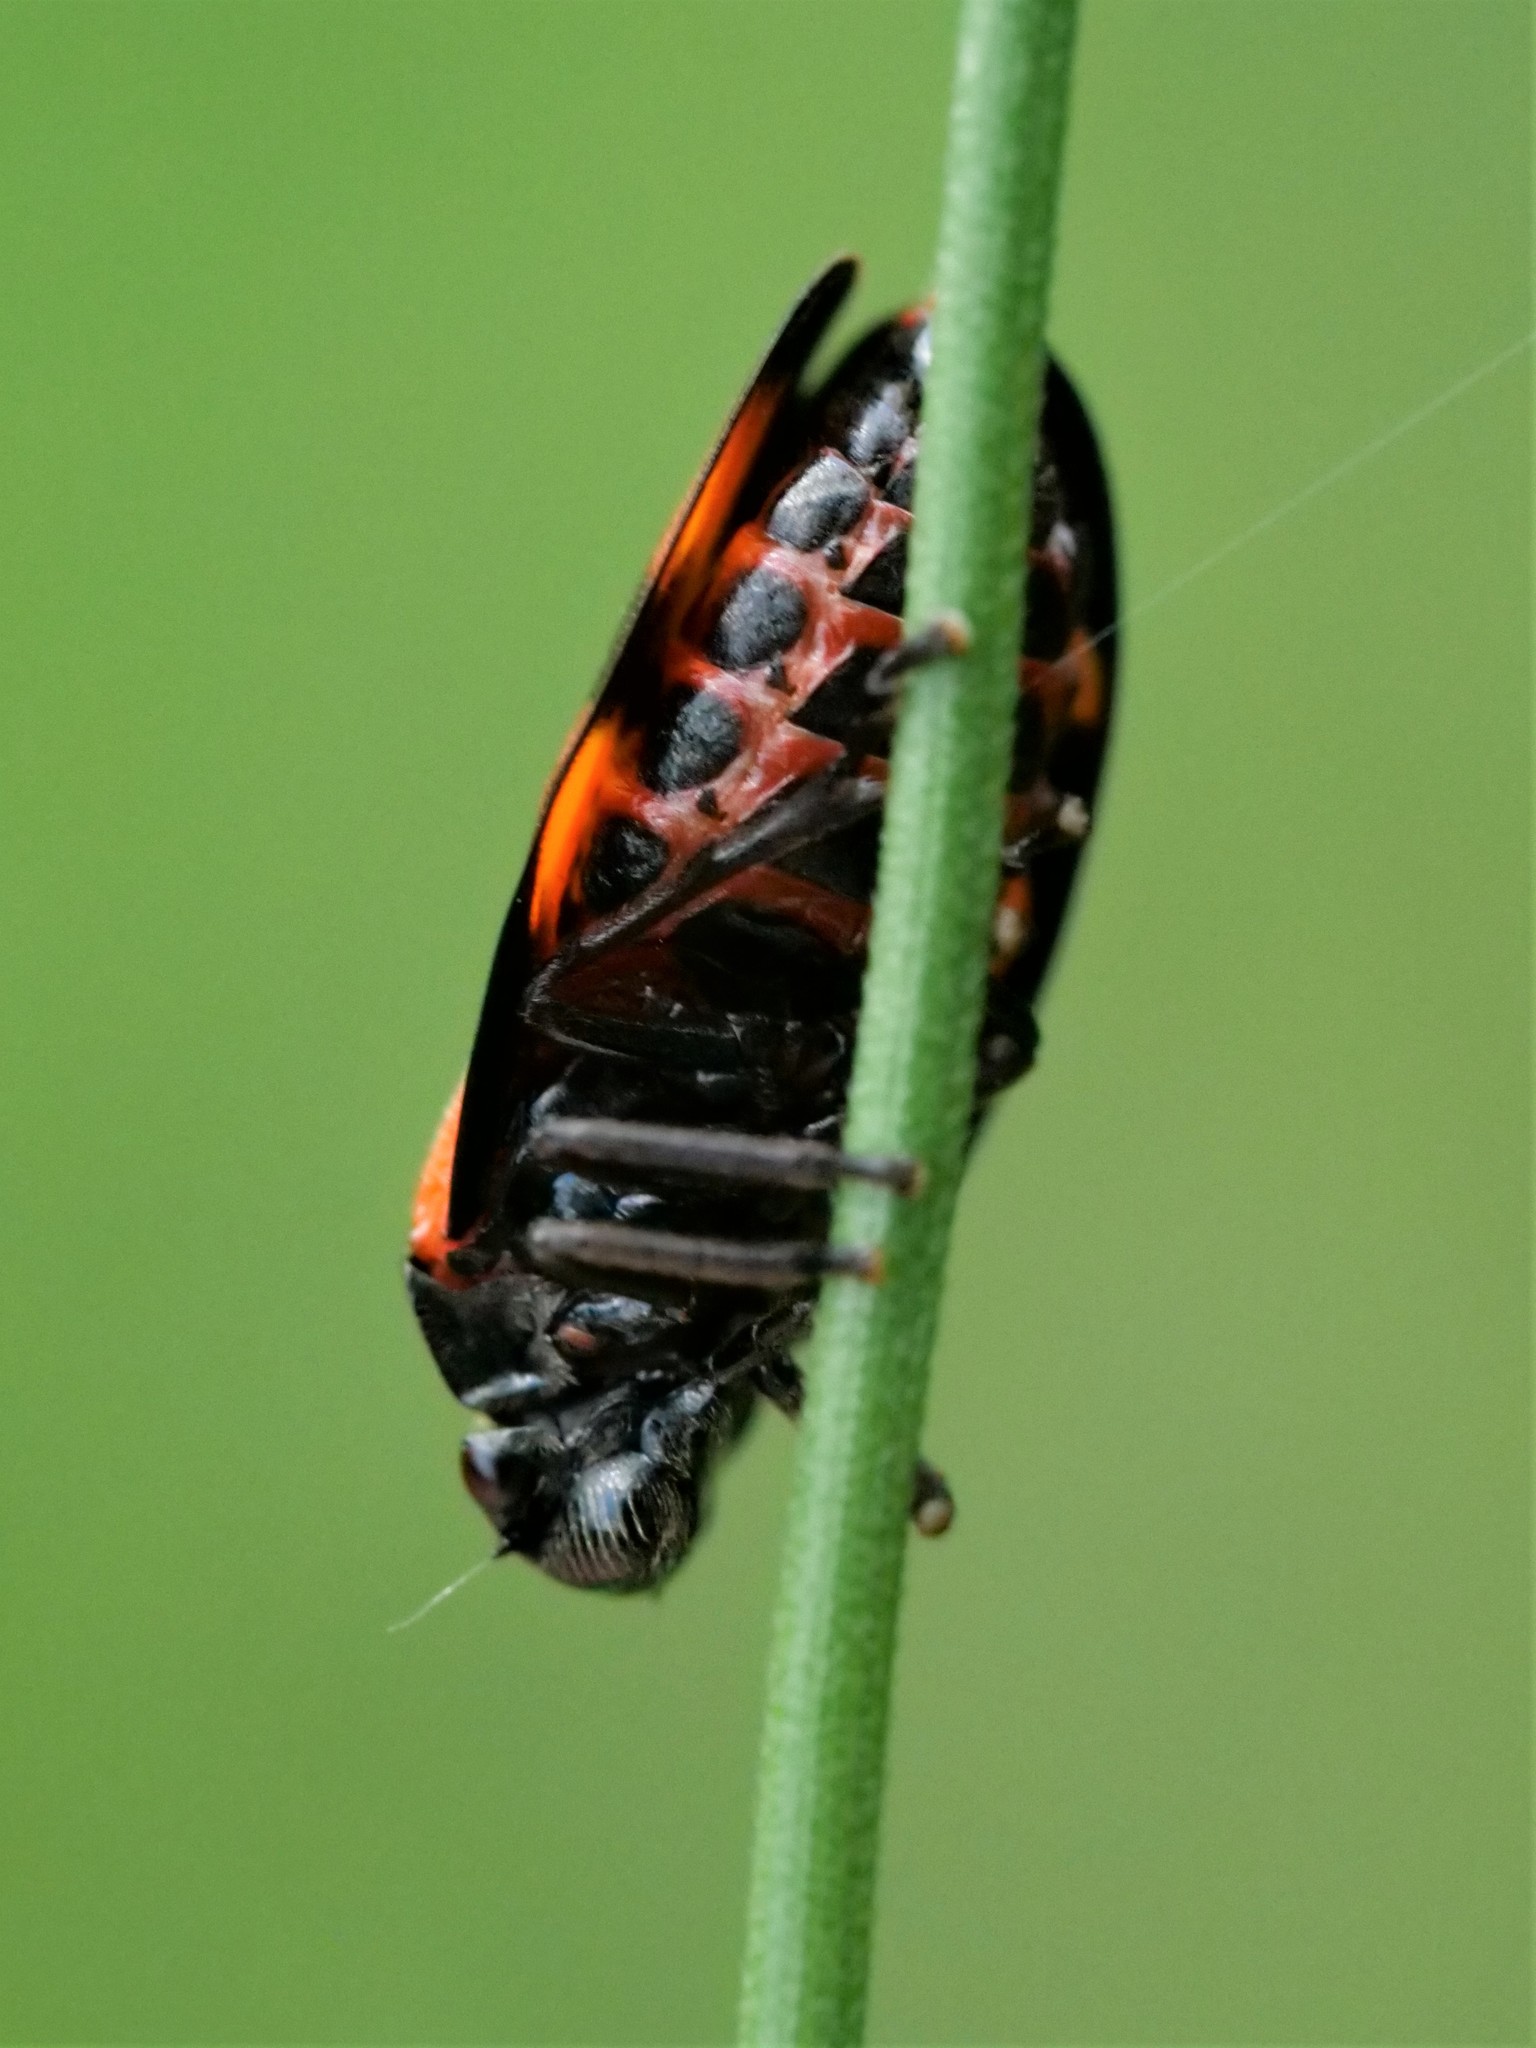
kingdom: Animalia
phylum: Arthropoda
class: Insecta
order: Hemiptera
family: Cercopidae
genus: Cercopis
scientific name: Cercopis vulnerata
